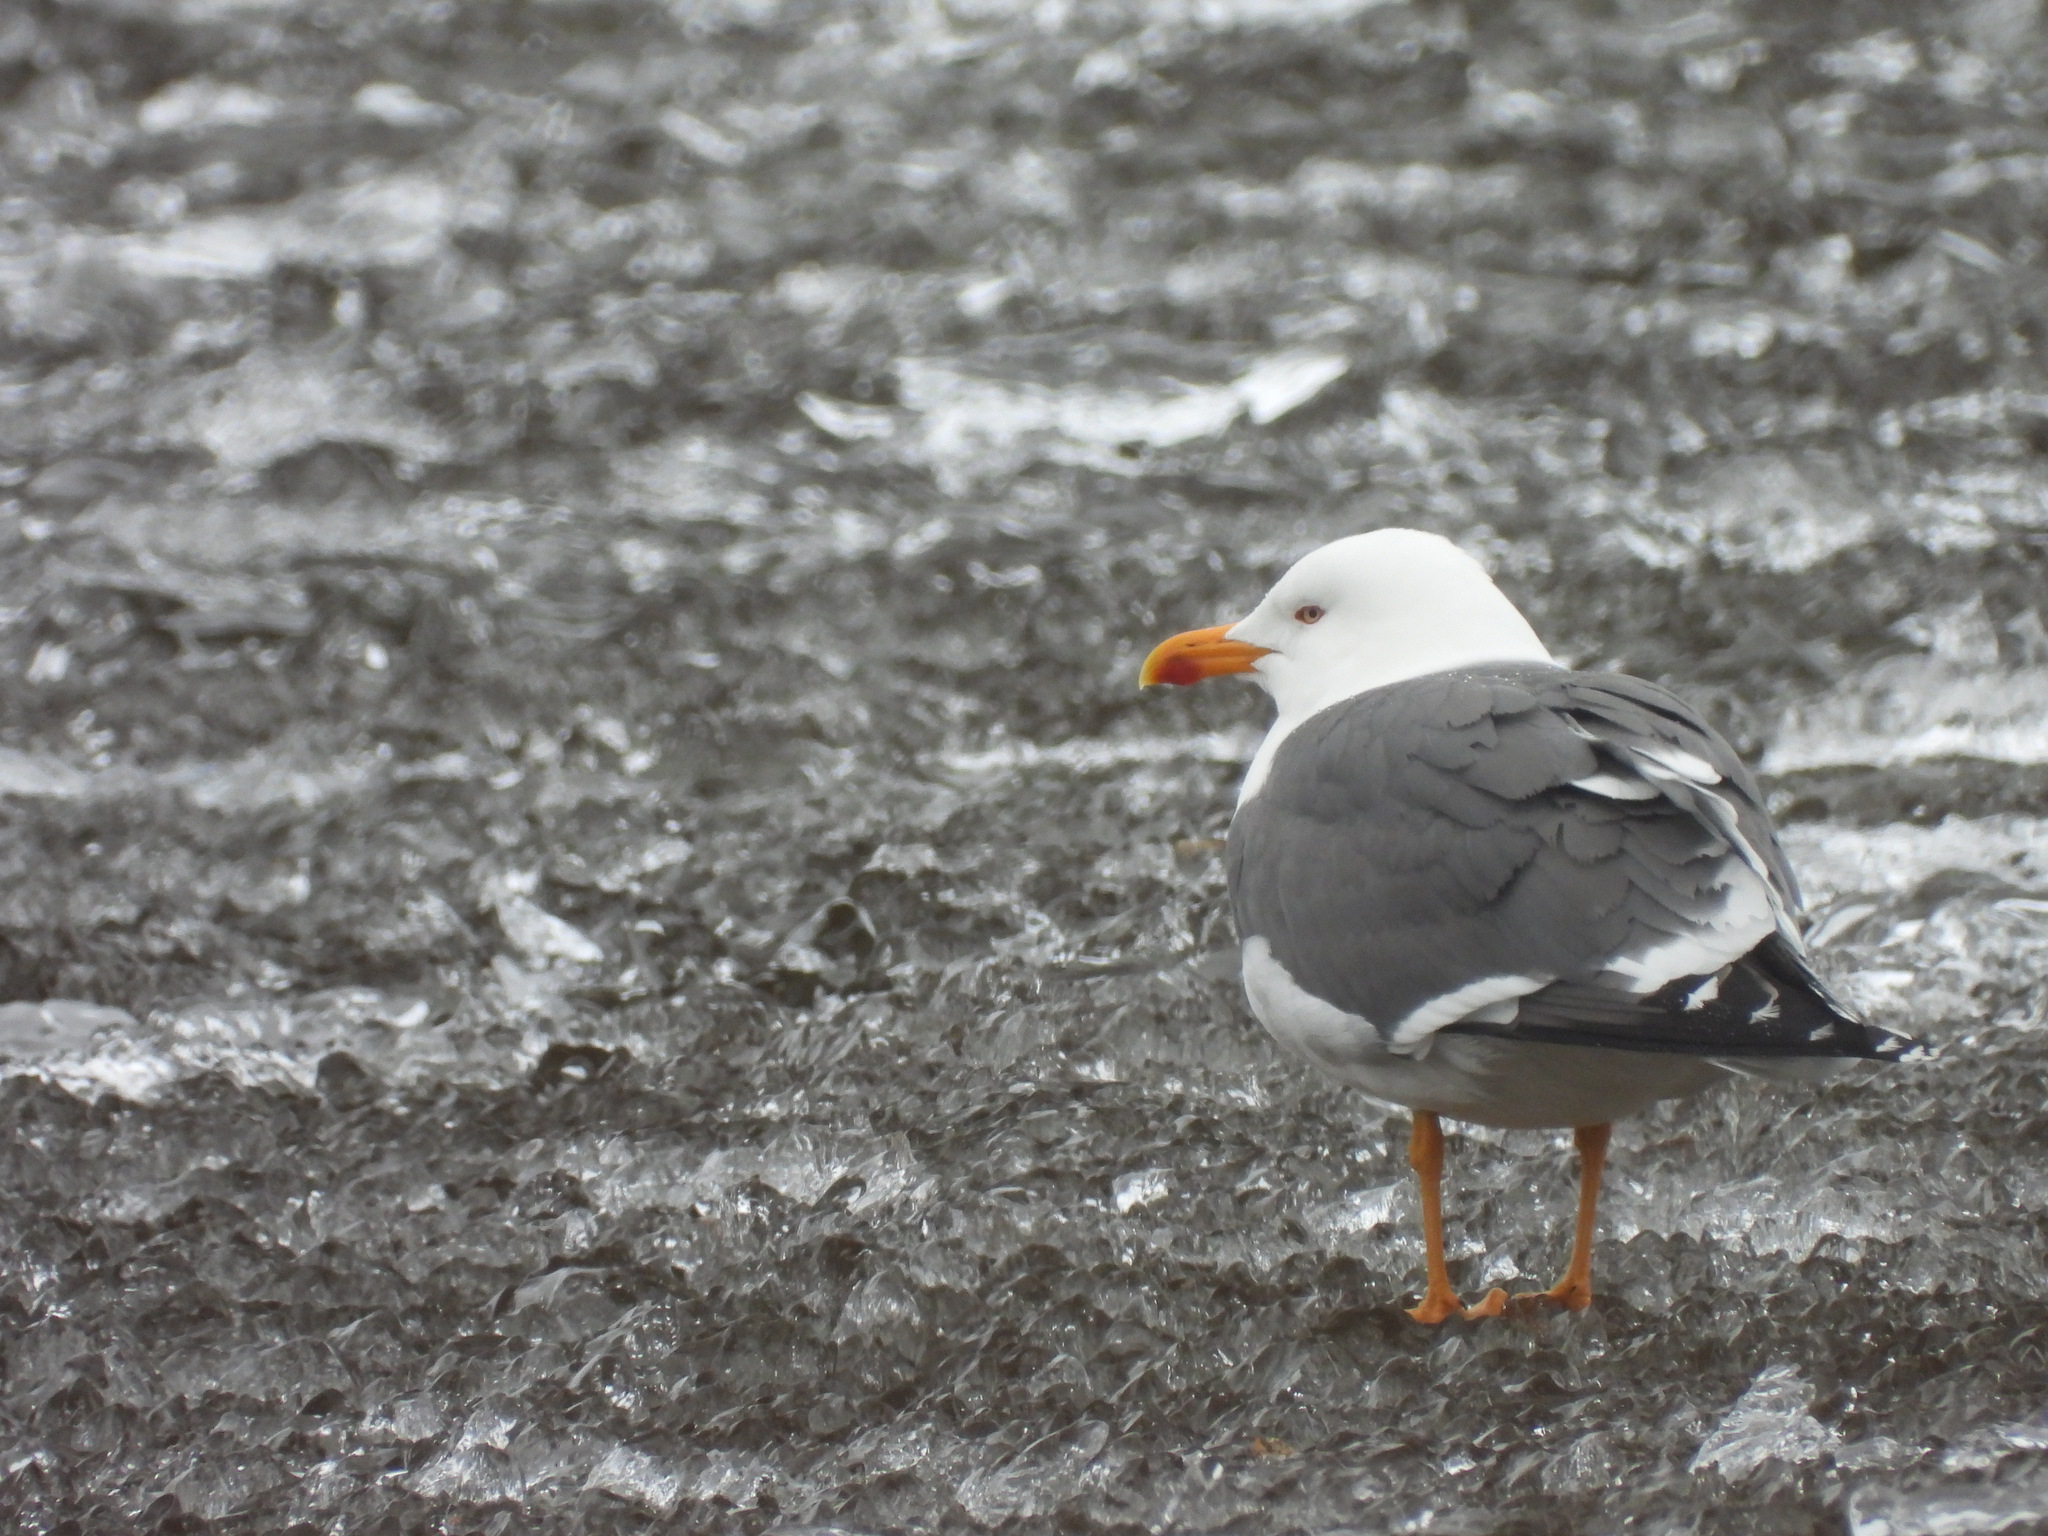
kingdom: Animalia
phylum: Chordata
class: Aves
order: Charadriiformes
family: Laridae
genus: Larus
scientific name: Larus fuscus
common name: Lesser black-backed gull
